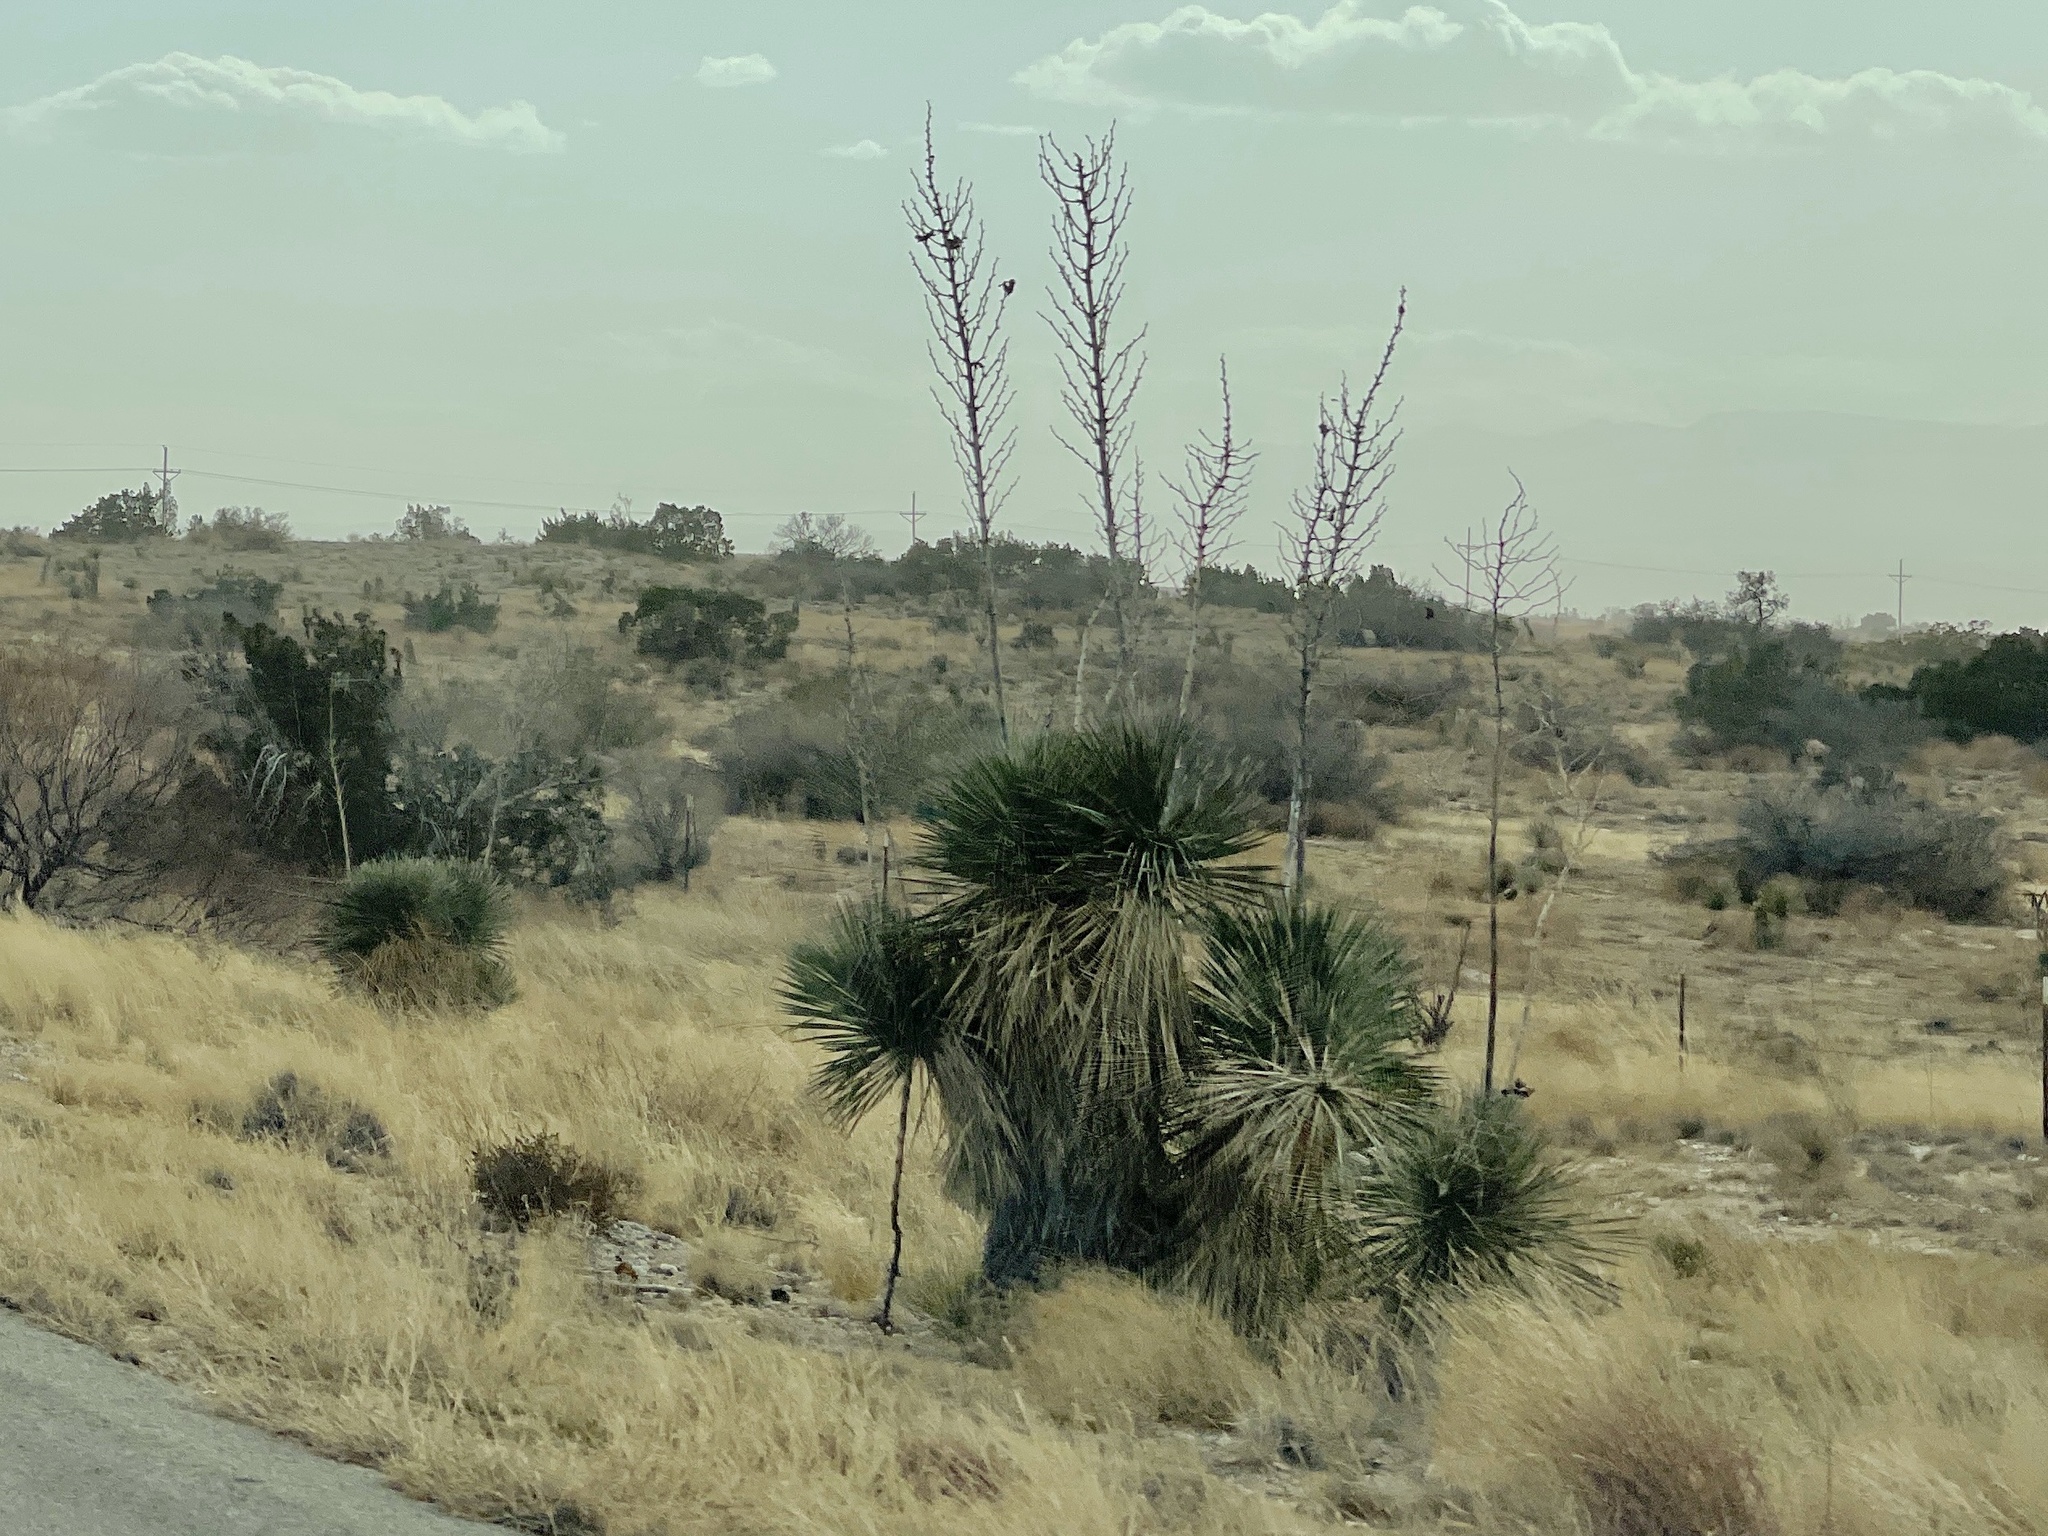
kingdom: Plantae
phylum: Tracheophyta
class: Liliopsida
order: Asparagales
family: Asparagaceae
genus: Yucca
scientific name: Yucca elata
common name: Palmella
